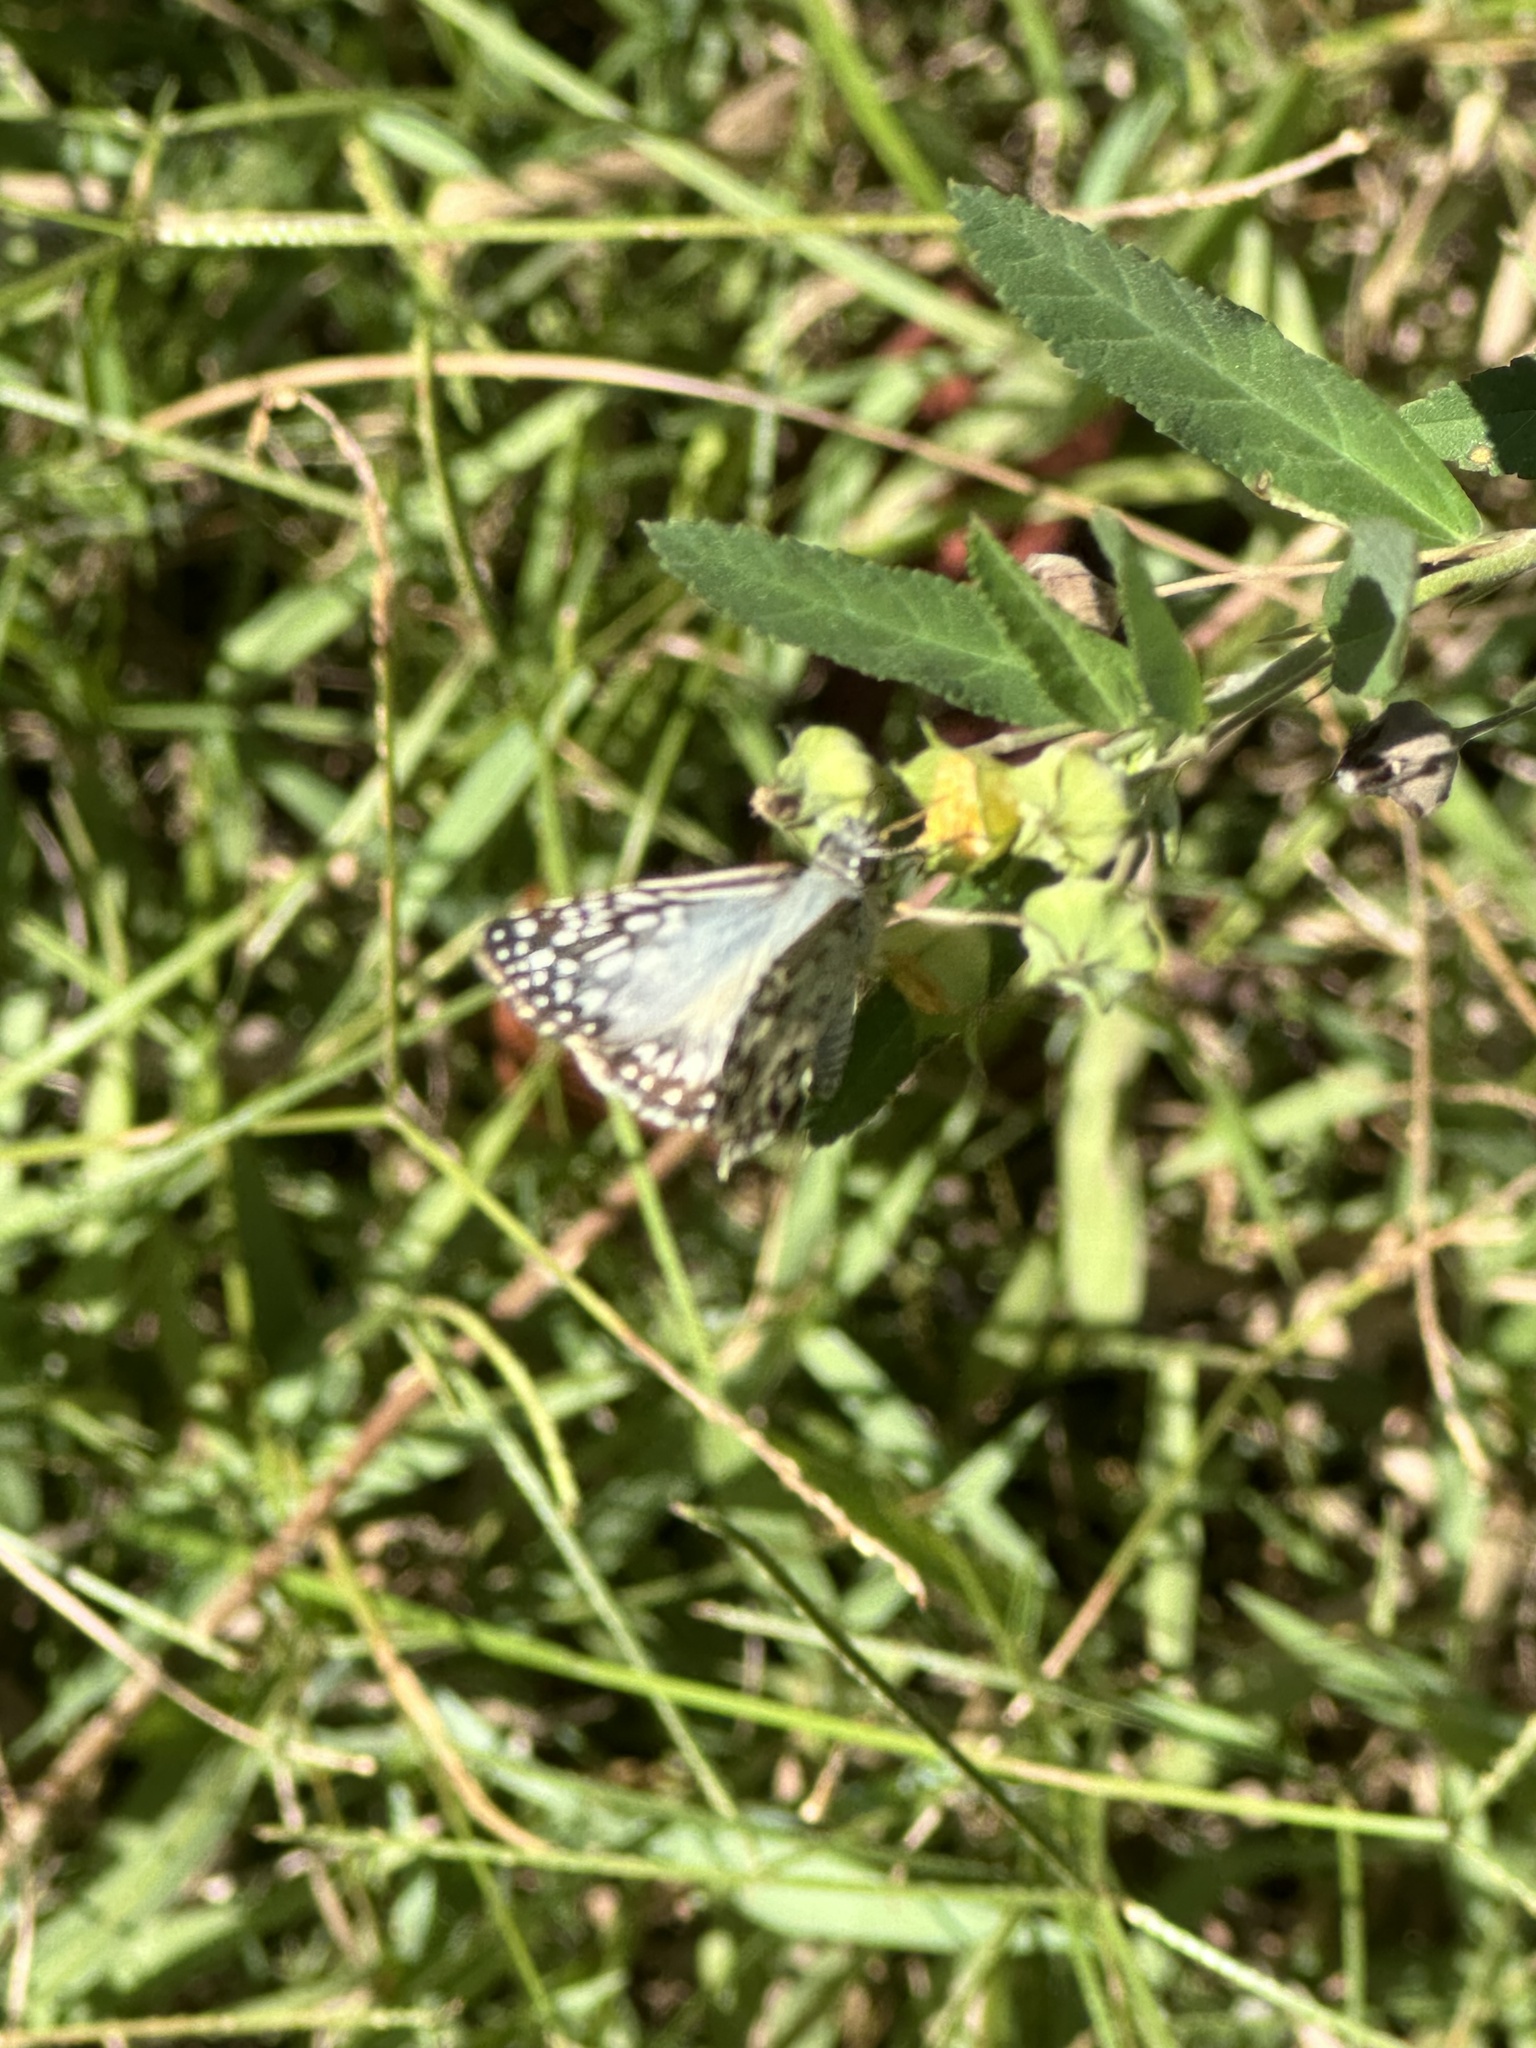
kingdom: Animalia
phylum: Arthropoda
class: Insecta
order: Lepidoptera
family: Hesperiidae
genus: Pyrgus
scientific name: Pyrgus oileus
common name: Tropical checkered-skipper
